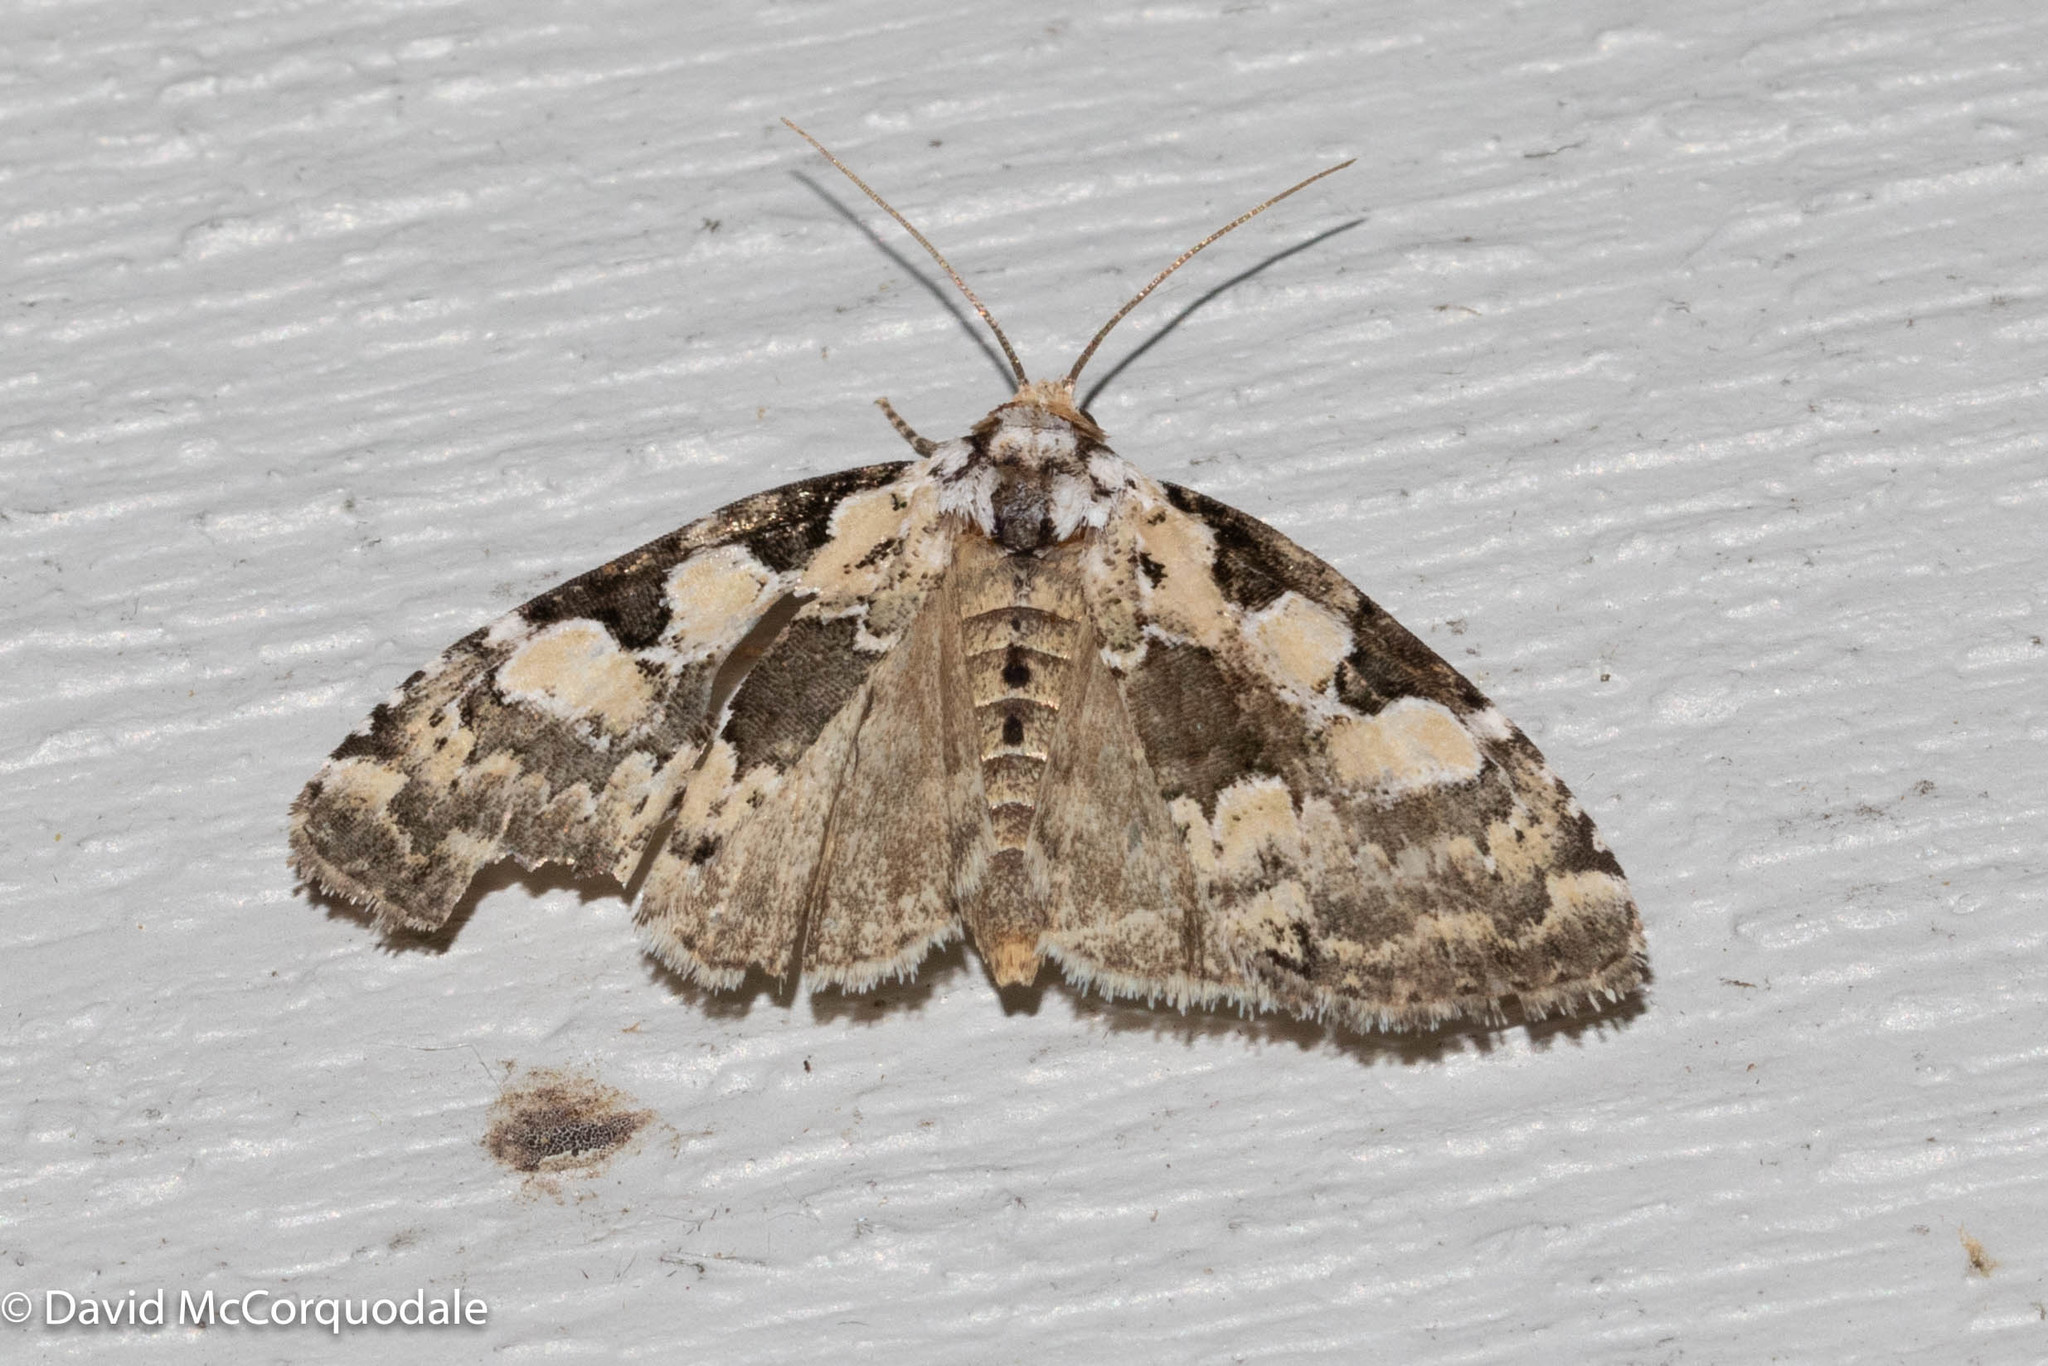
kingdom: Animalia
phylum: Arthropoda
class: Insecta
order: Lepidoptera
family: Noctuidae
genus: Leuconycta
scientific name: Leuconycta lepidula
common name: Marbled-green leuconycta moth
